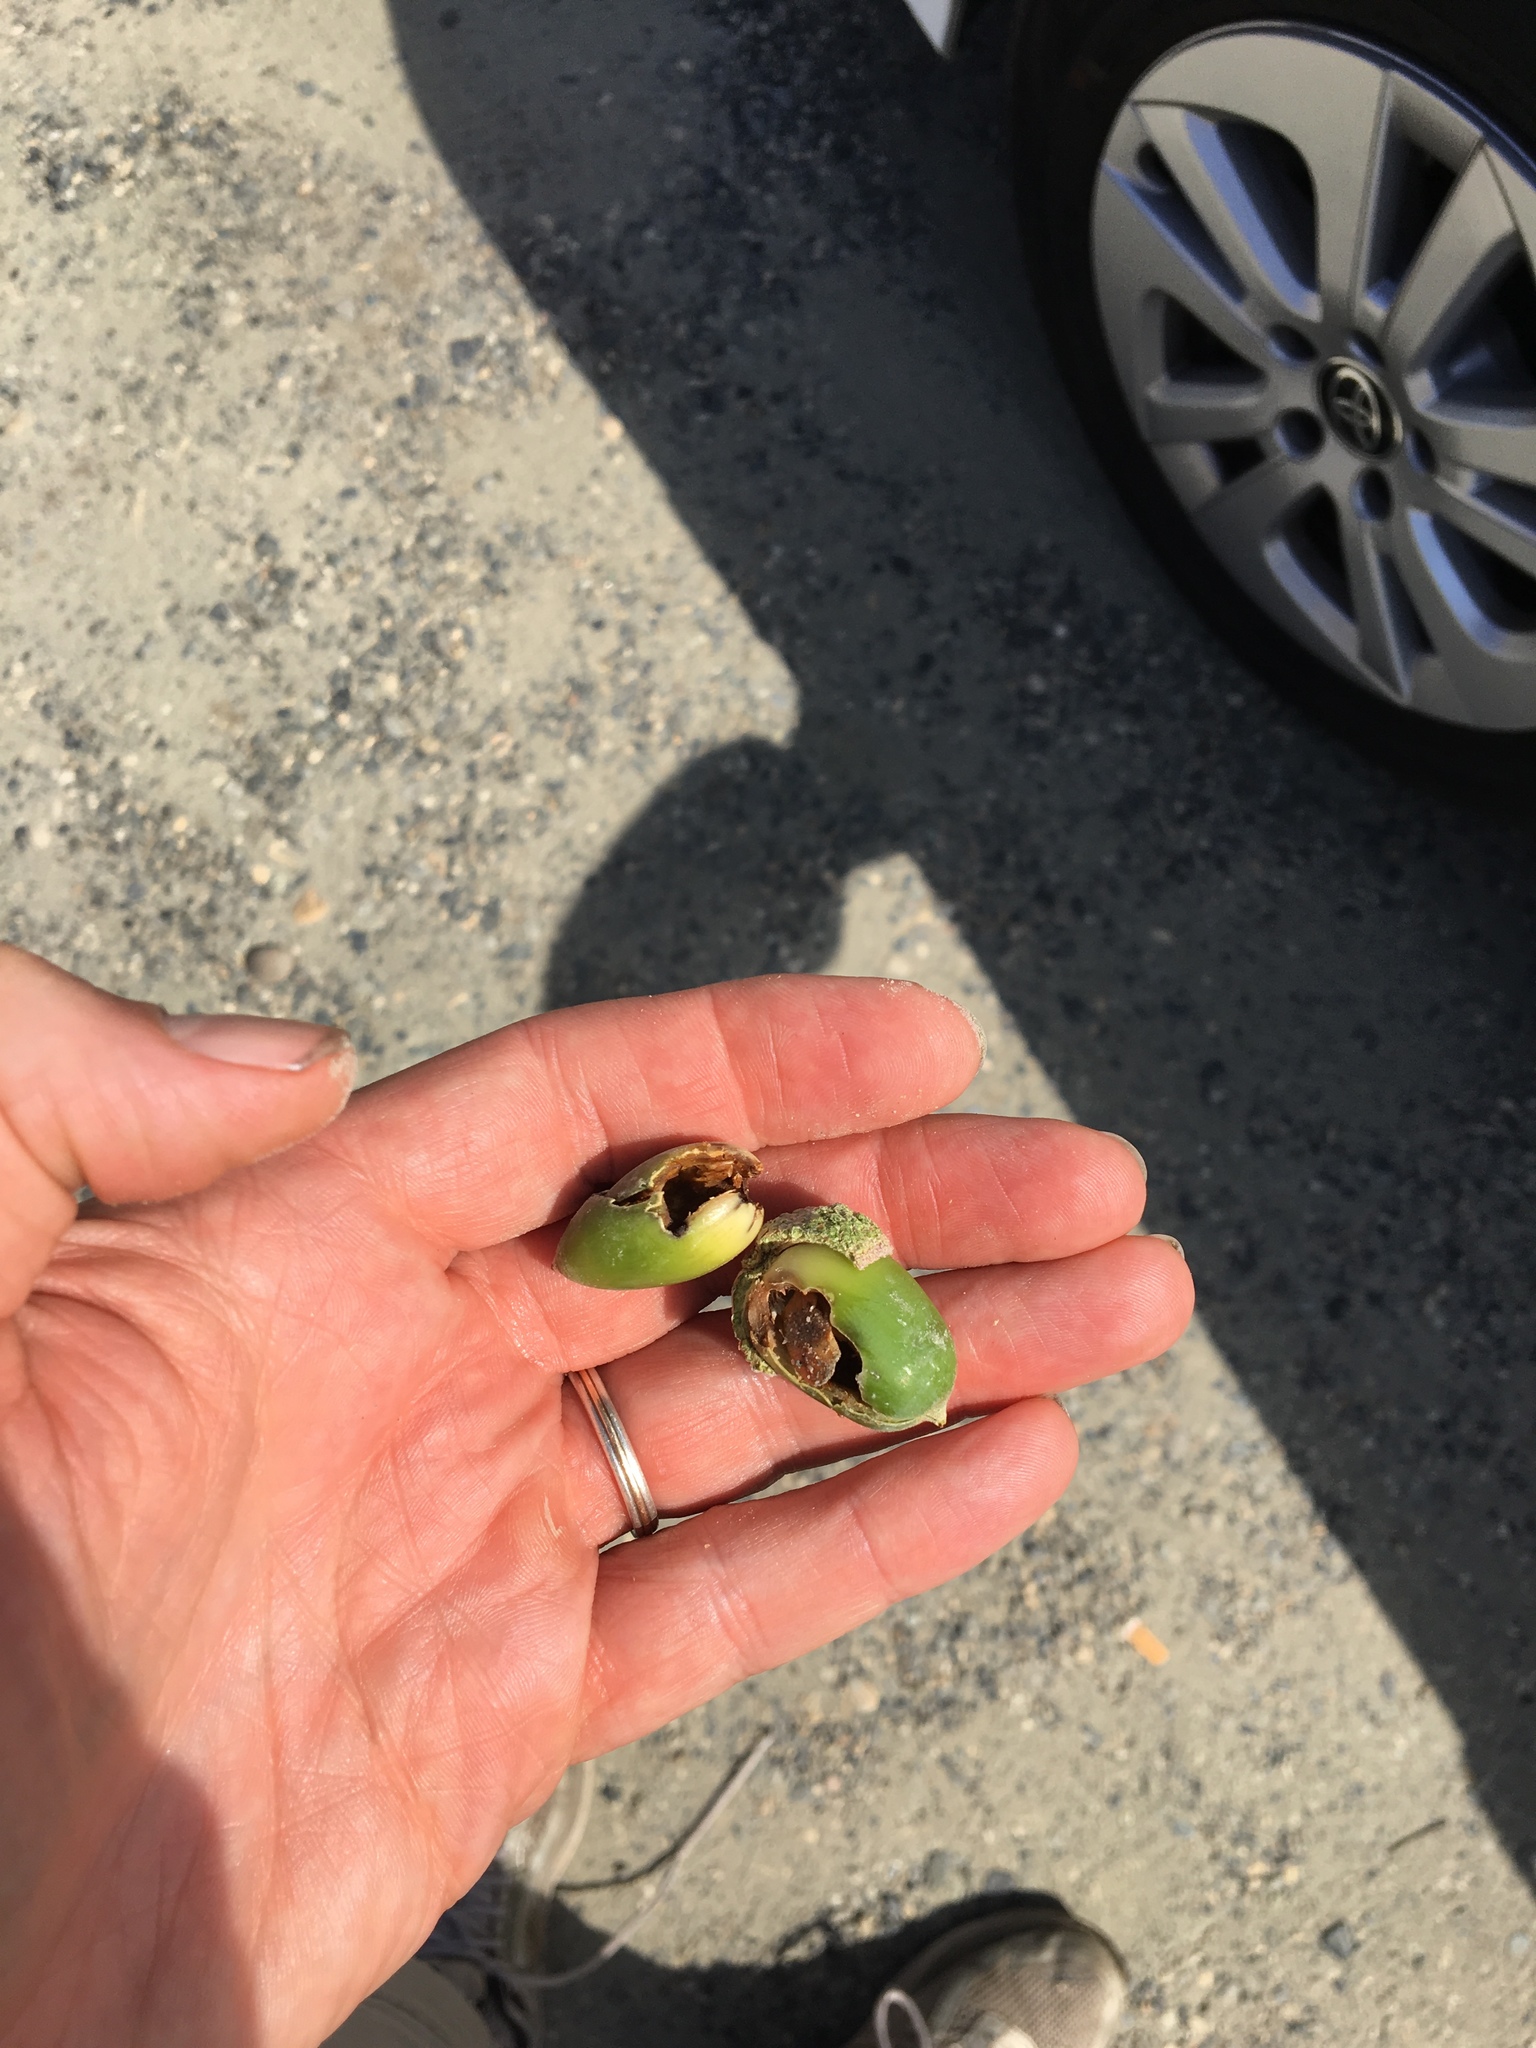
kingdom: Animalia
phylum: Chordata
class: Aves
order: Piciformes
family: Picidae
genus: Melanerpes
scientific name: Melanerpes formicivorus
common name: Acorn woodpecker
